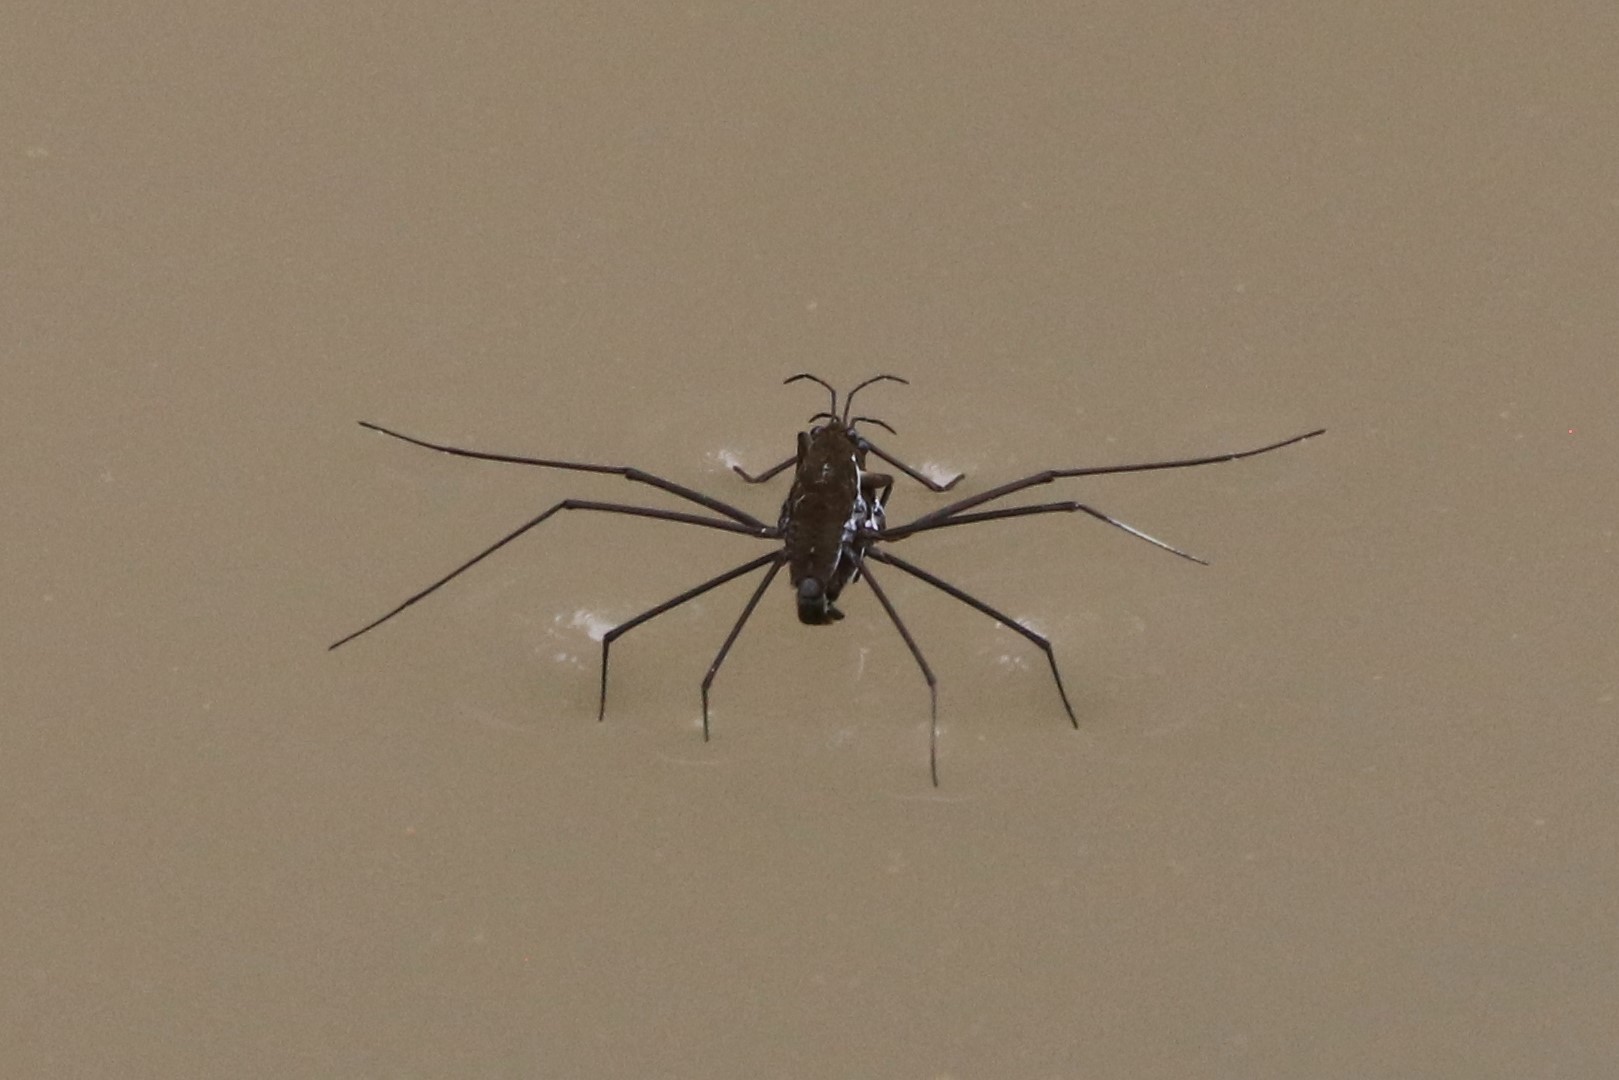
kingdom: Animalia
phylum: Arthropoda
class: Insecta
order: Hemiptera
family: Gerridae
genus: Aquarius
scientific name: Aquarius remigis
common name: Common water strider
